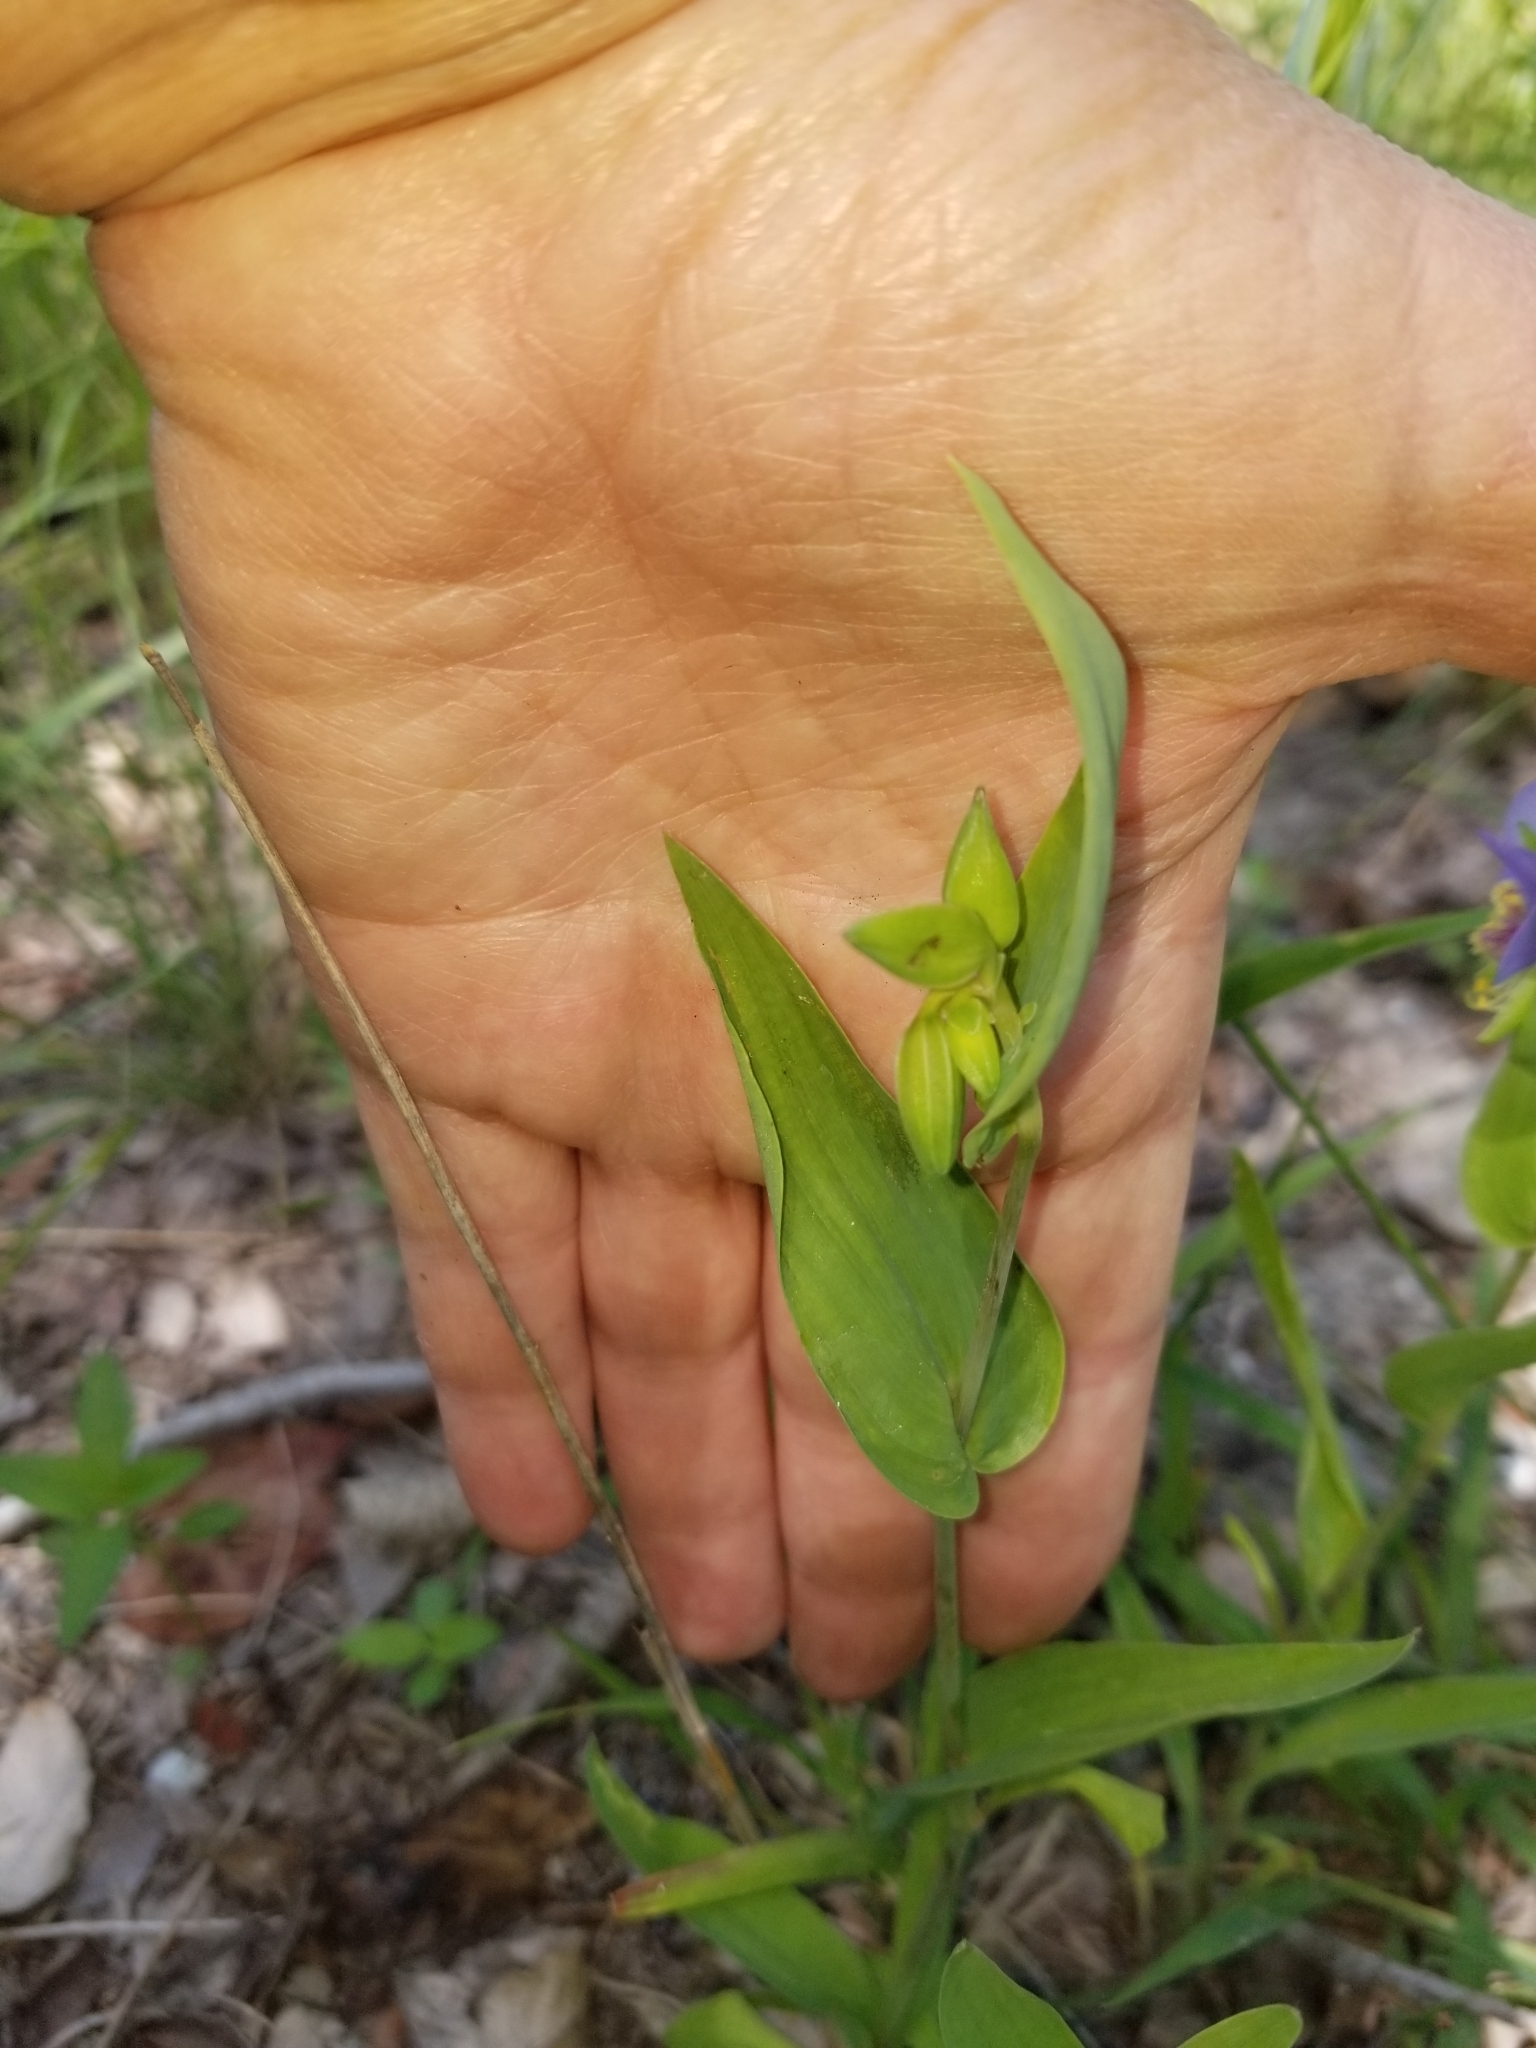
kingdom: Plantae
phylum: Tracheophyta
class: Liliopsida
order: Commelinales
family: Commelinaceae
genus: Tinantia
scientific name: Tinantia anomala
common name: False dayflower
